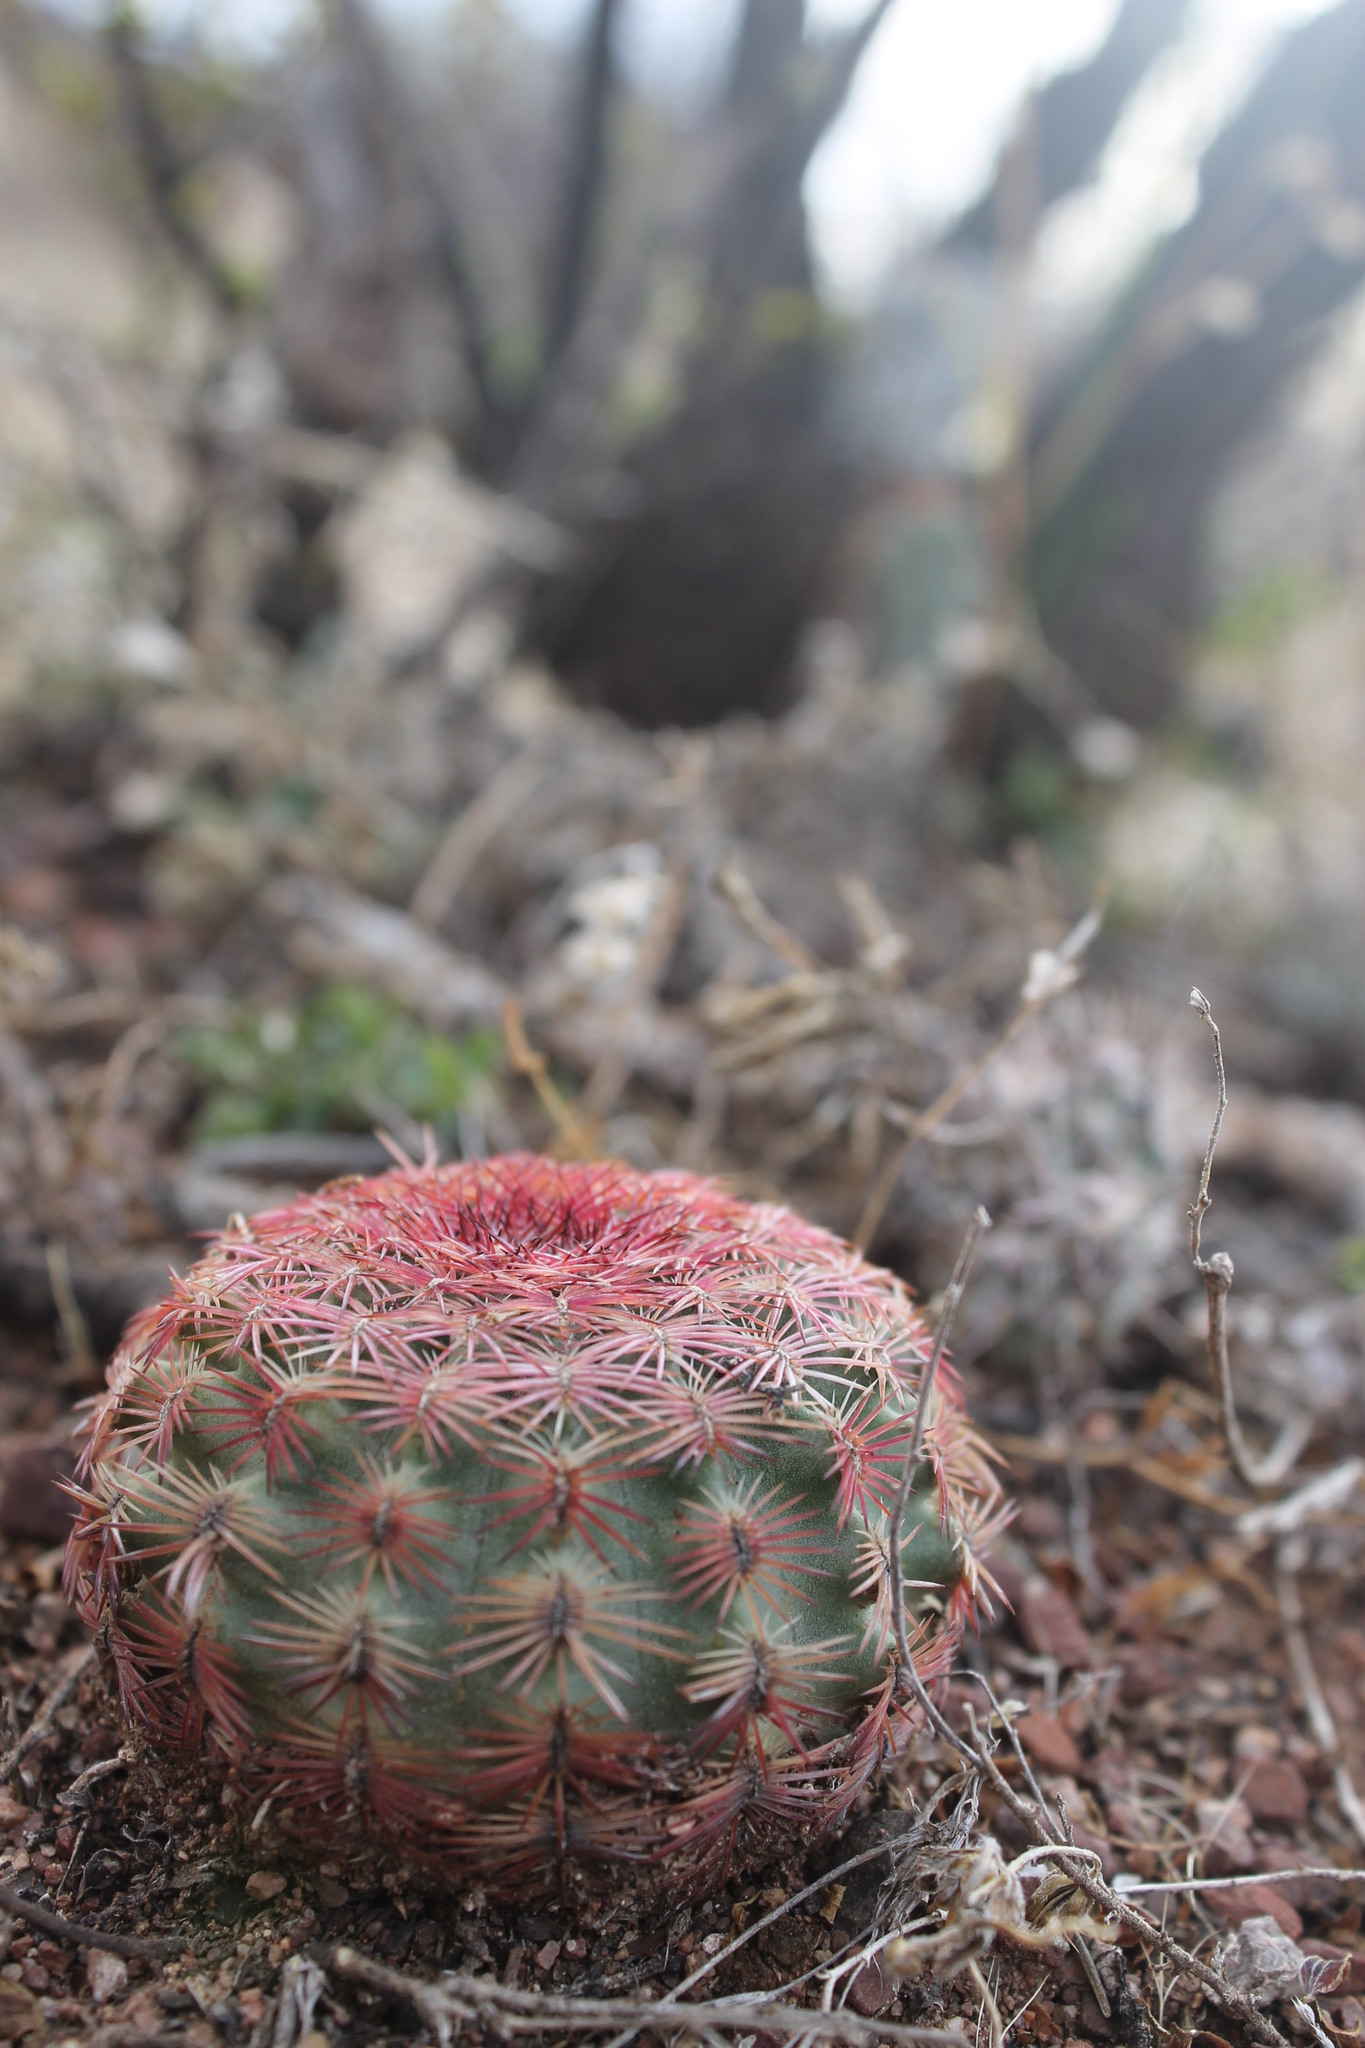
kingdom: Plantae
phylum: Tracheophyta
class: Magnoliopsida
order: Caryophyllales
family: Cactaceae
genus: Echinocereus
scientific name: Echinocereus pectinatus
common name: Rainbow cactus
